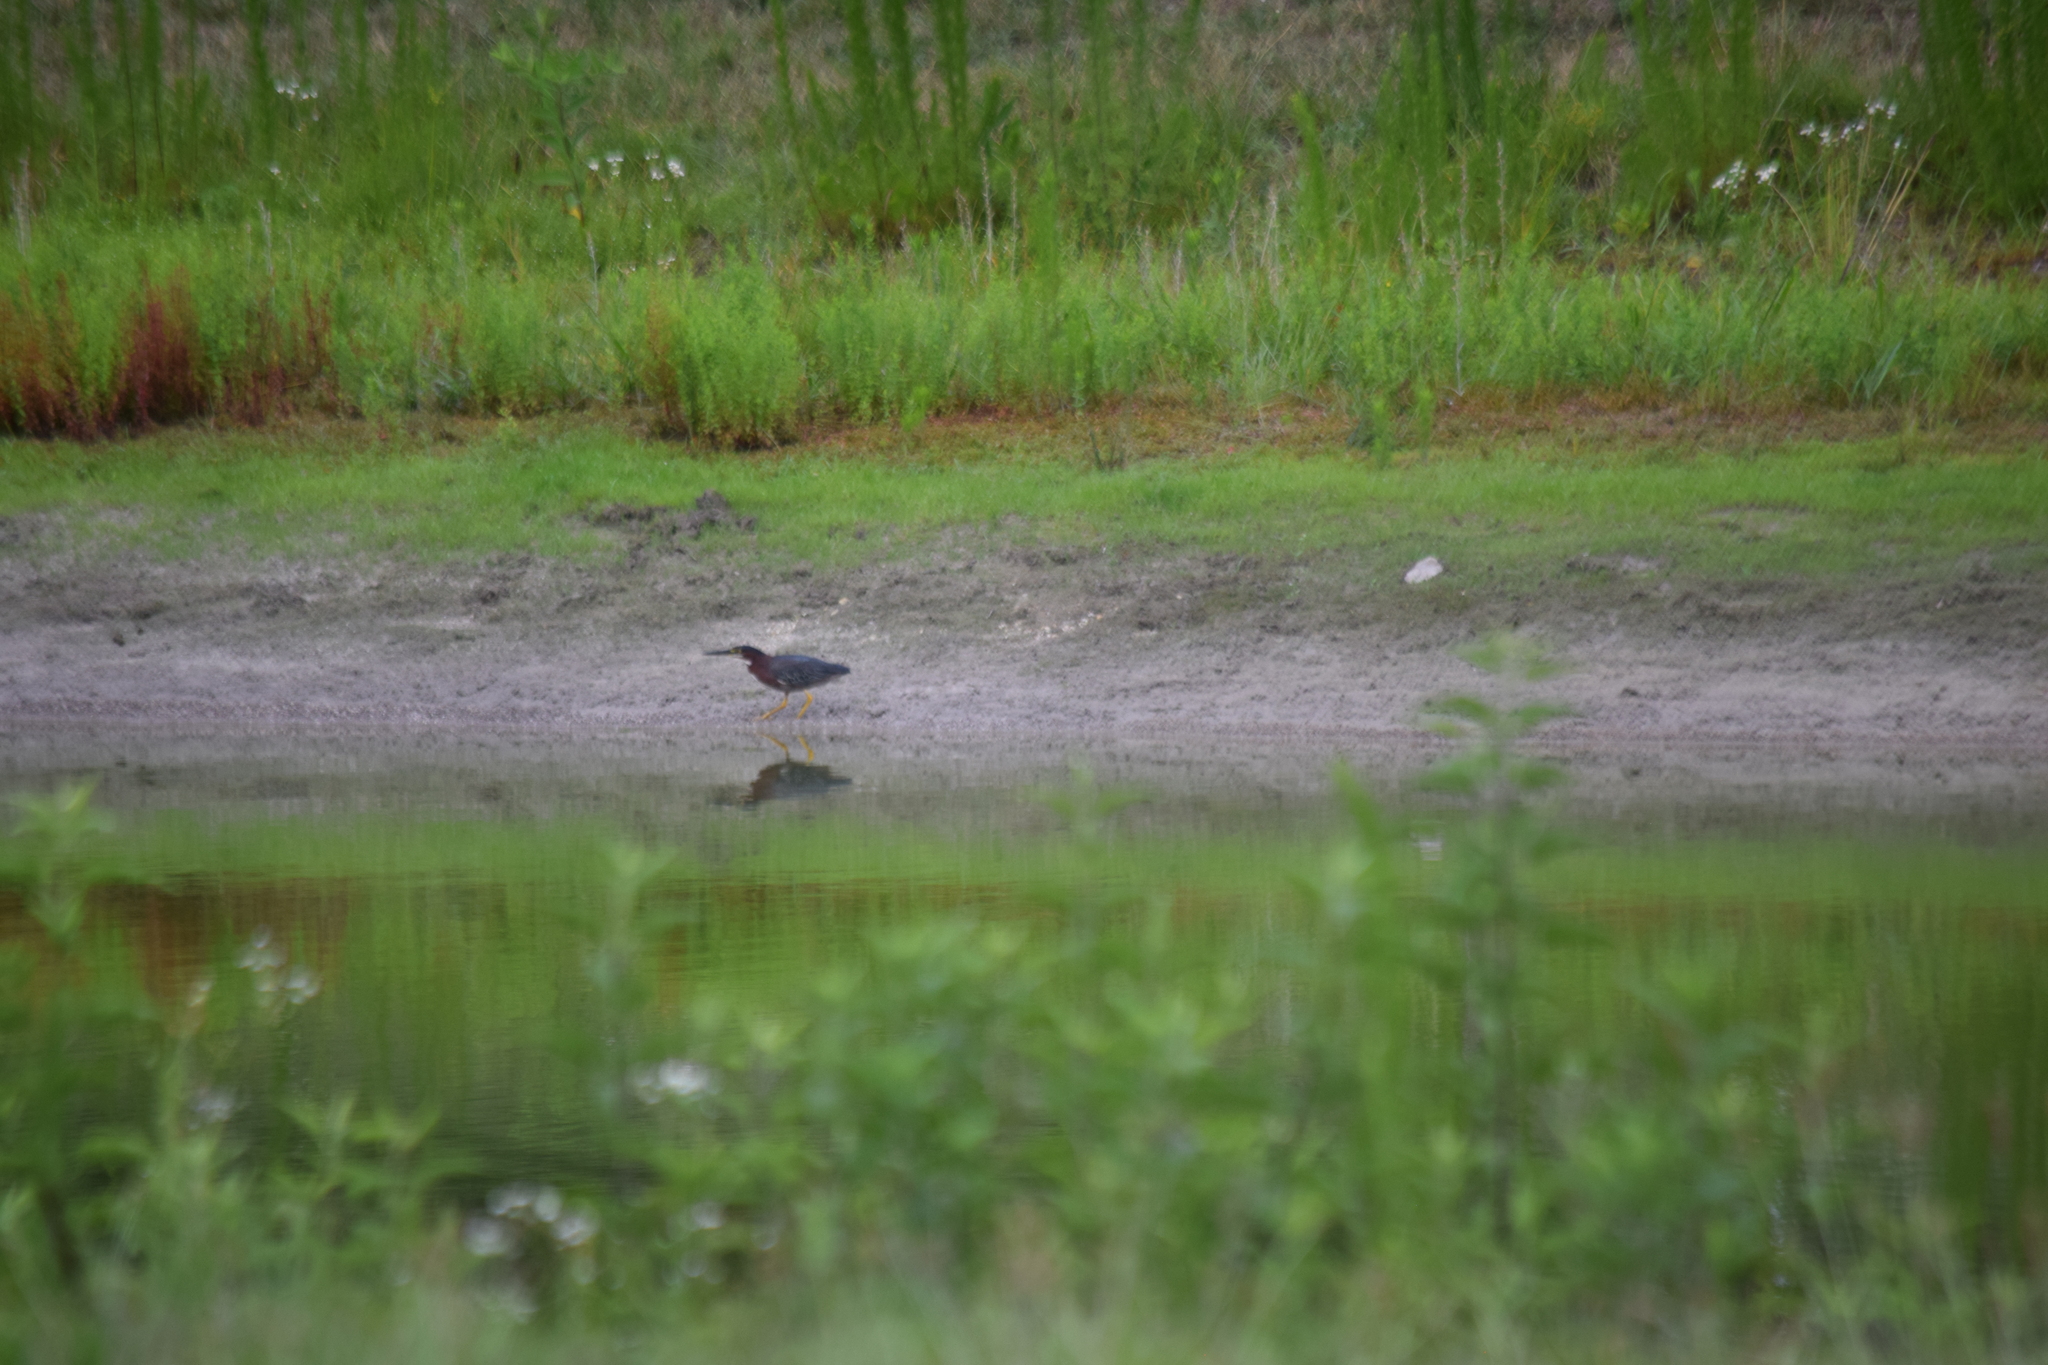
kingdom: Animalia
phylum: Chordata
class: Aves
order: Pelecaniformes
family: Ardeidae
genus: Butorides
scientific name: Butorides virescens
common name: Green heron
